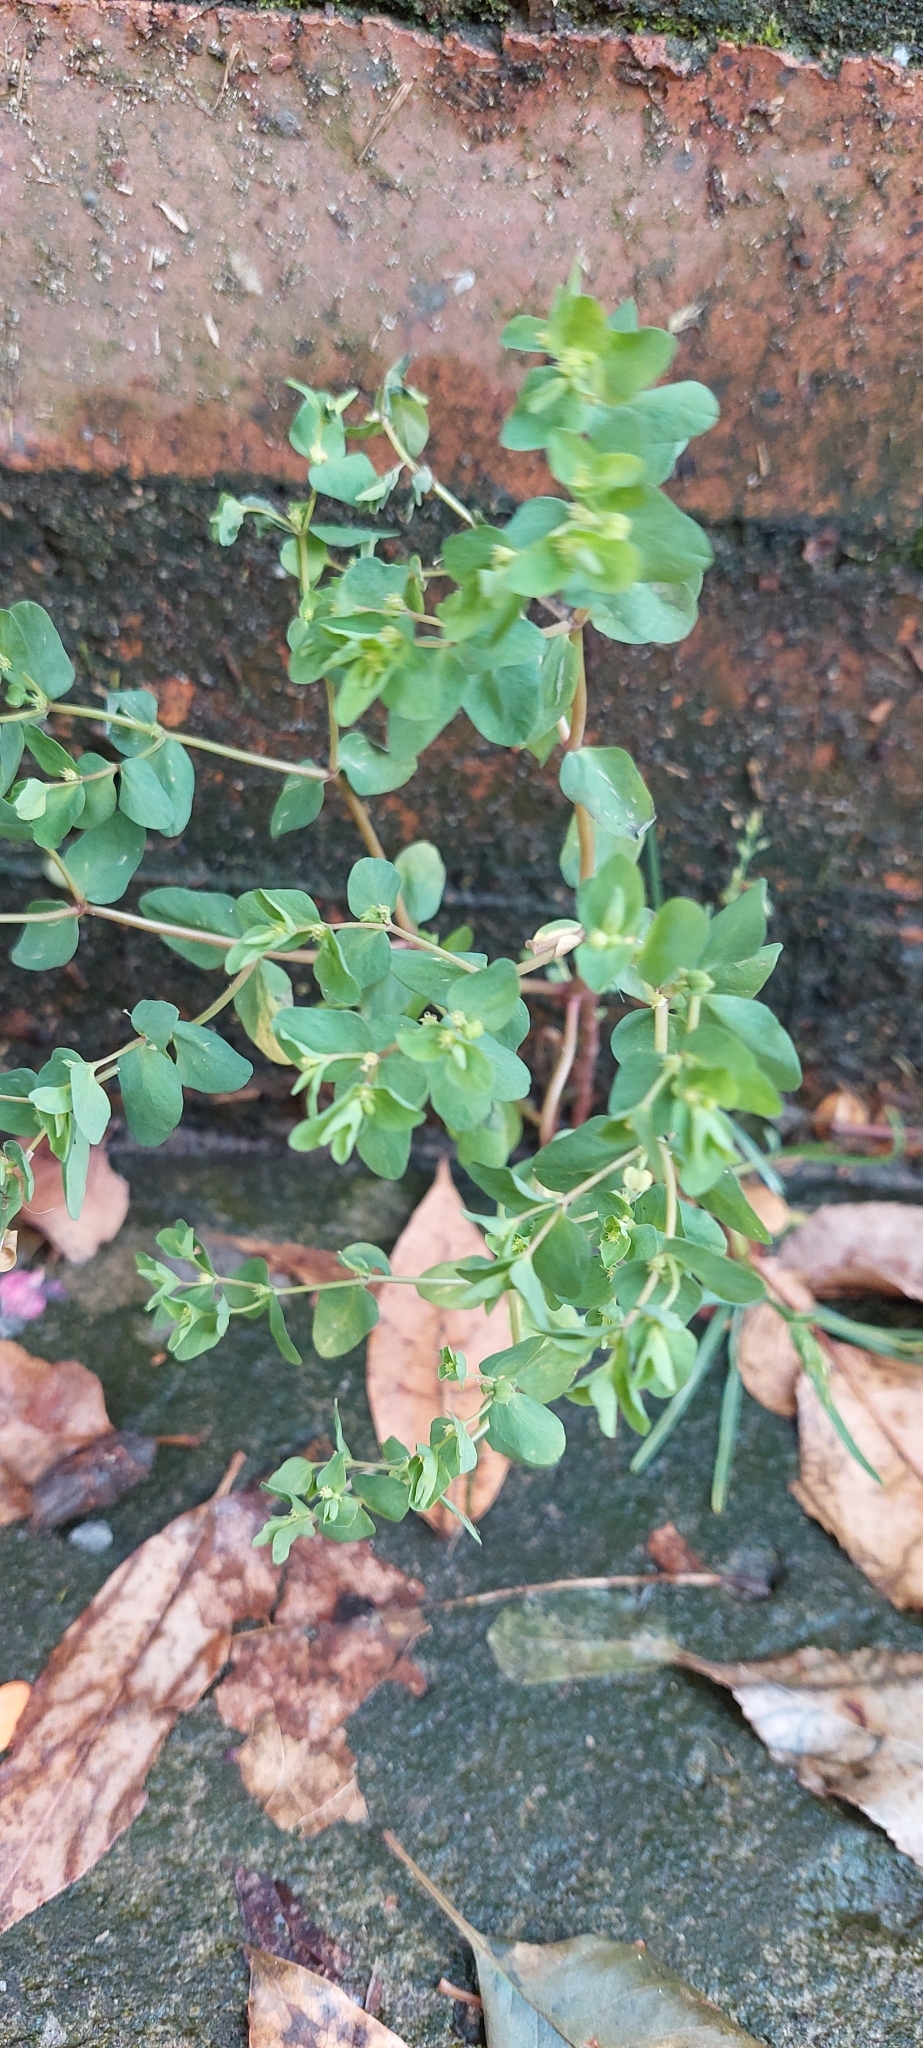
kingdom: Plantae
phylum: Tracheophyta
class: Magnoliopsida
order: Malpighiales
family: Euphorbiaceae
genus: Euphorbia
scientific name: Euphorbia peplus
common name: Petty spurge
